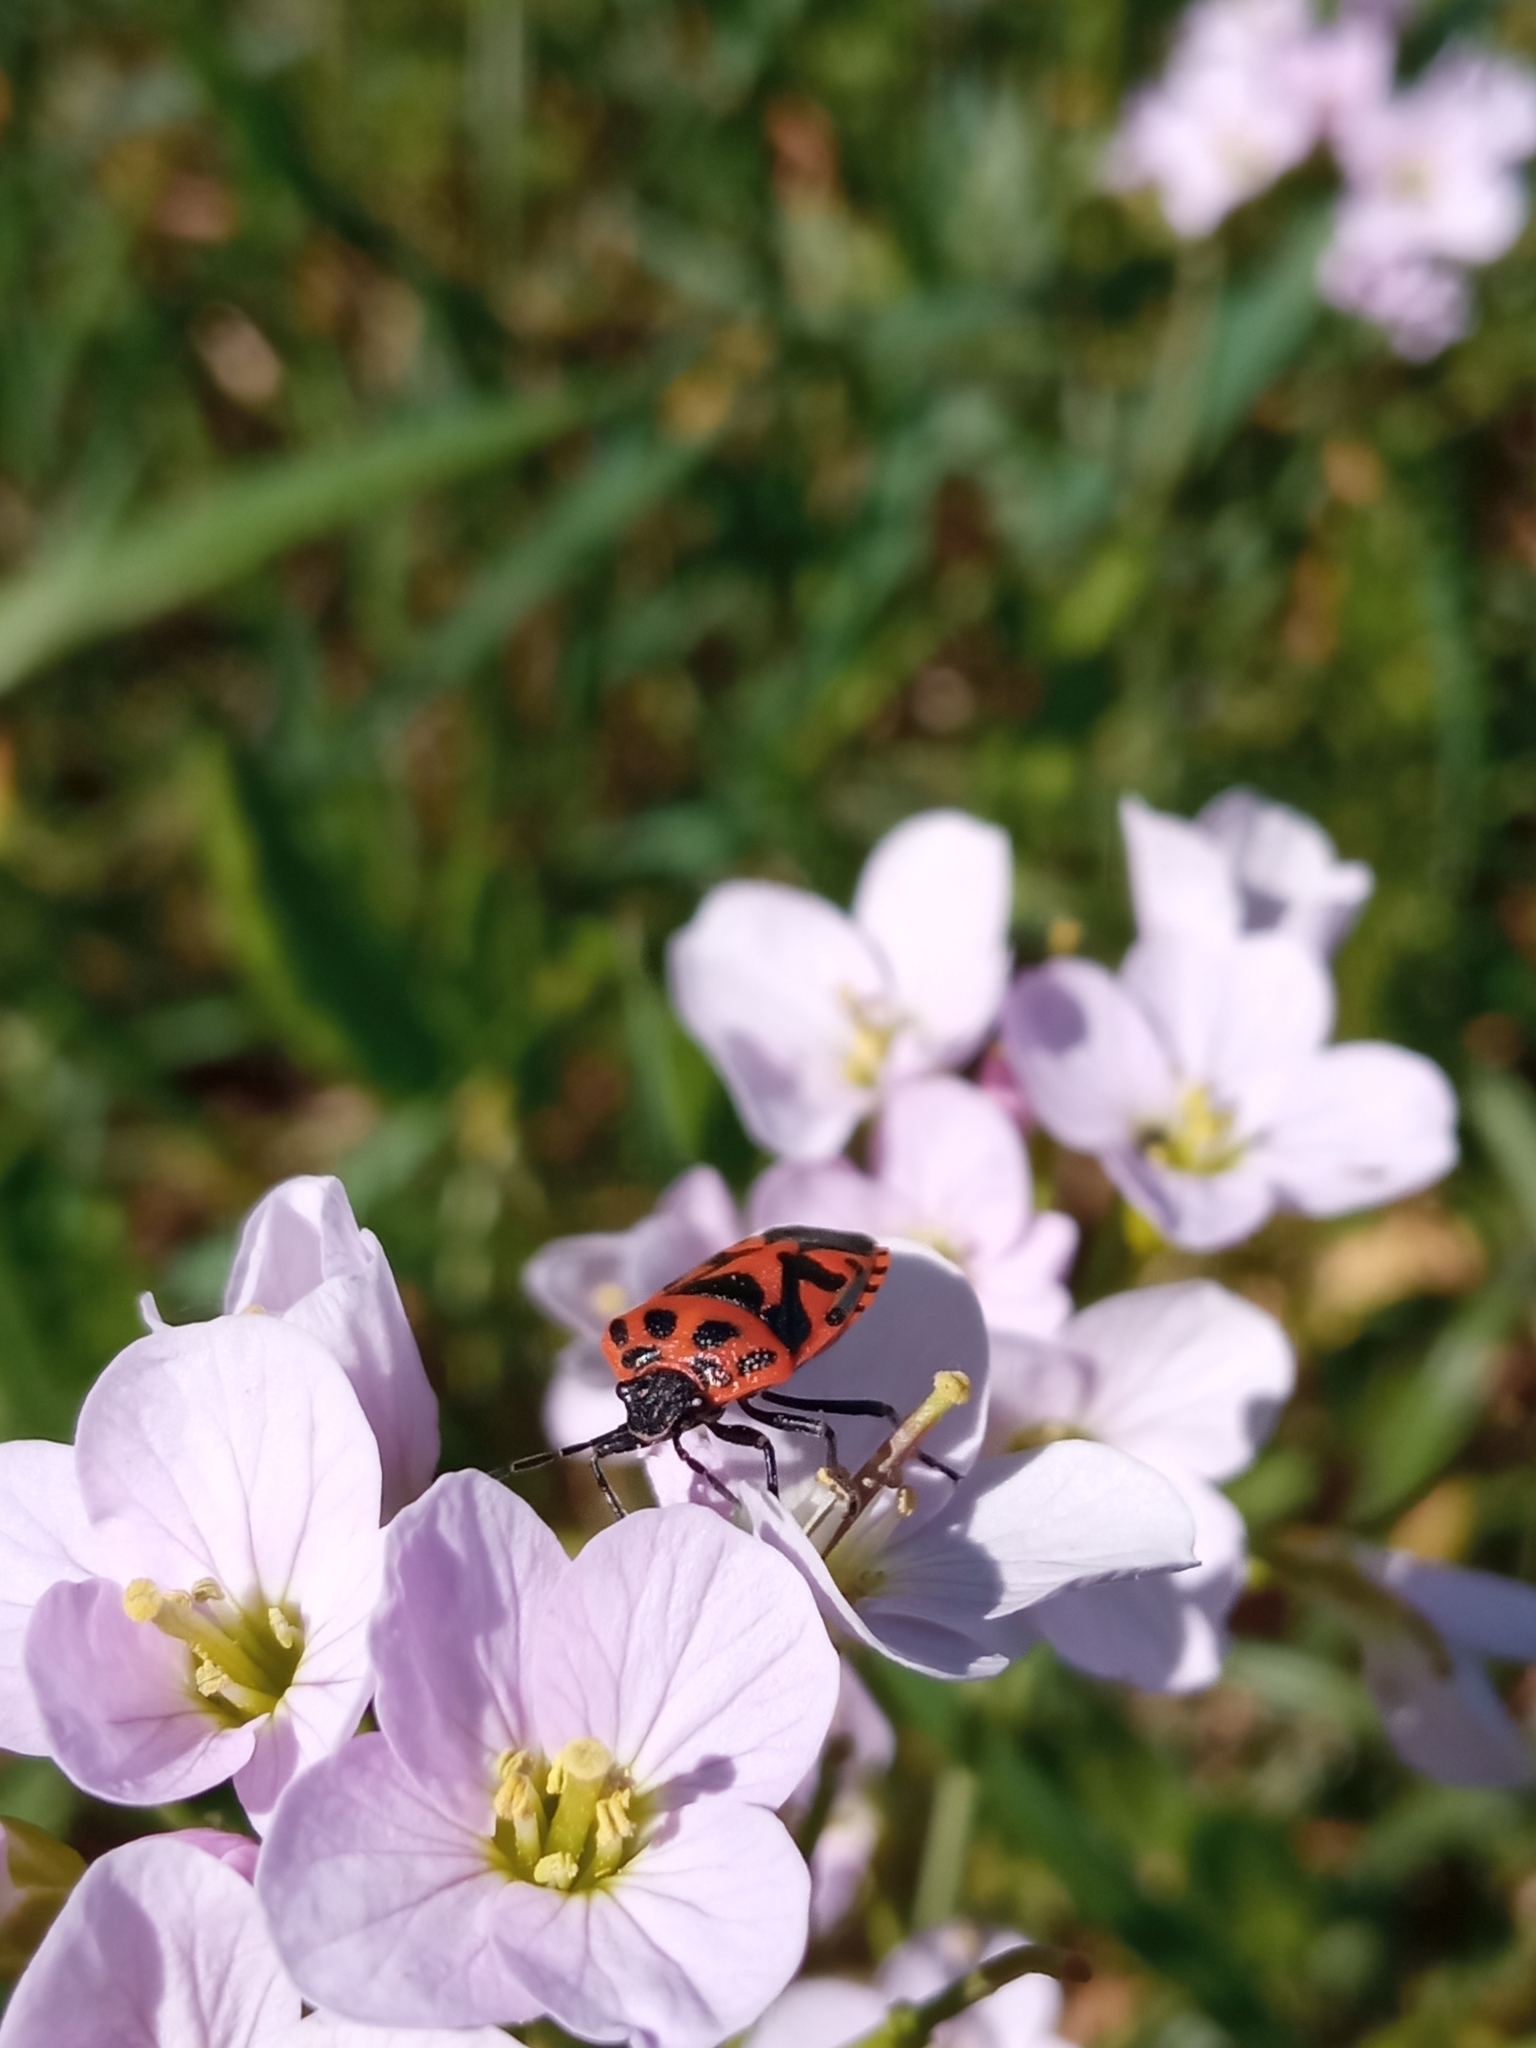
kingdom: Animalia
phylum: Arthropoda
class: Insecta
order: Hemiptera
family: Pentatomidae
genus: Eurydema
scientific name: Eurydema ornata
